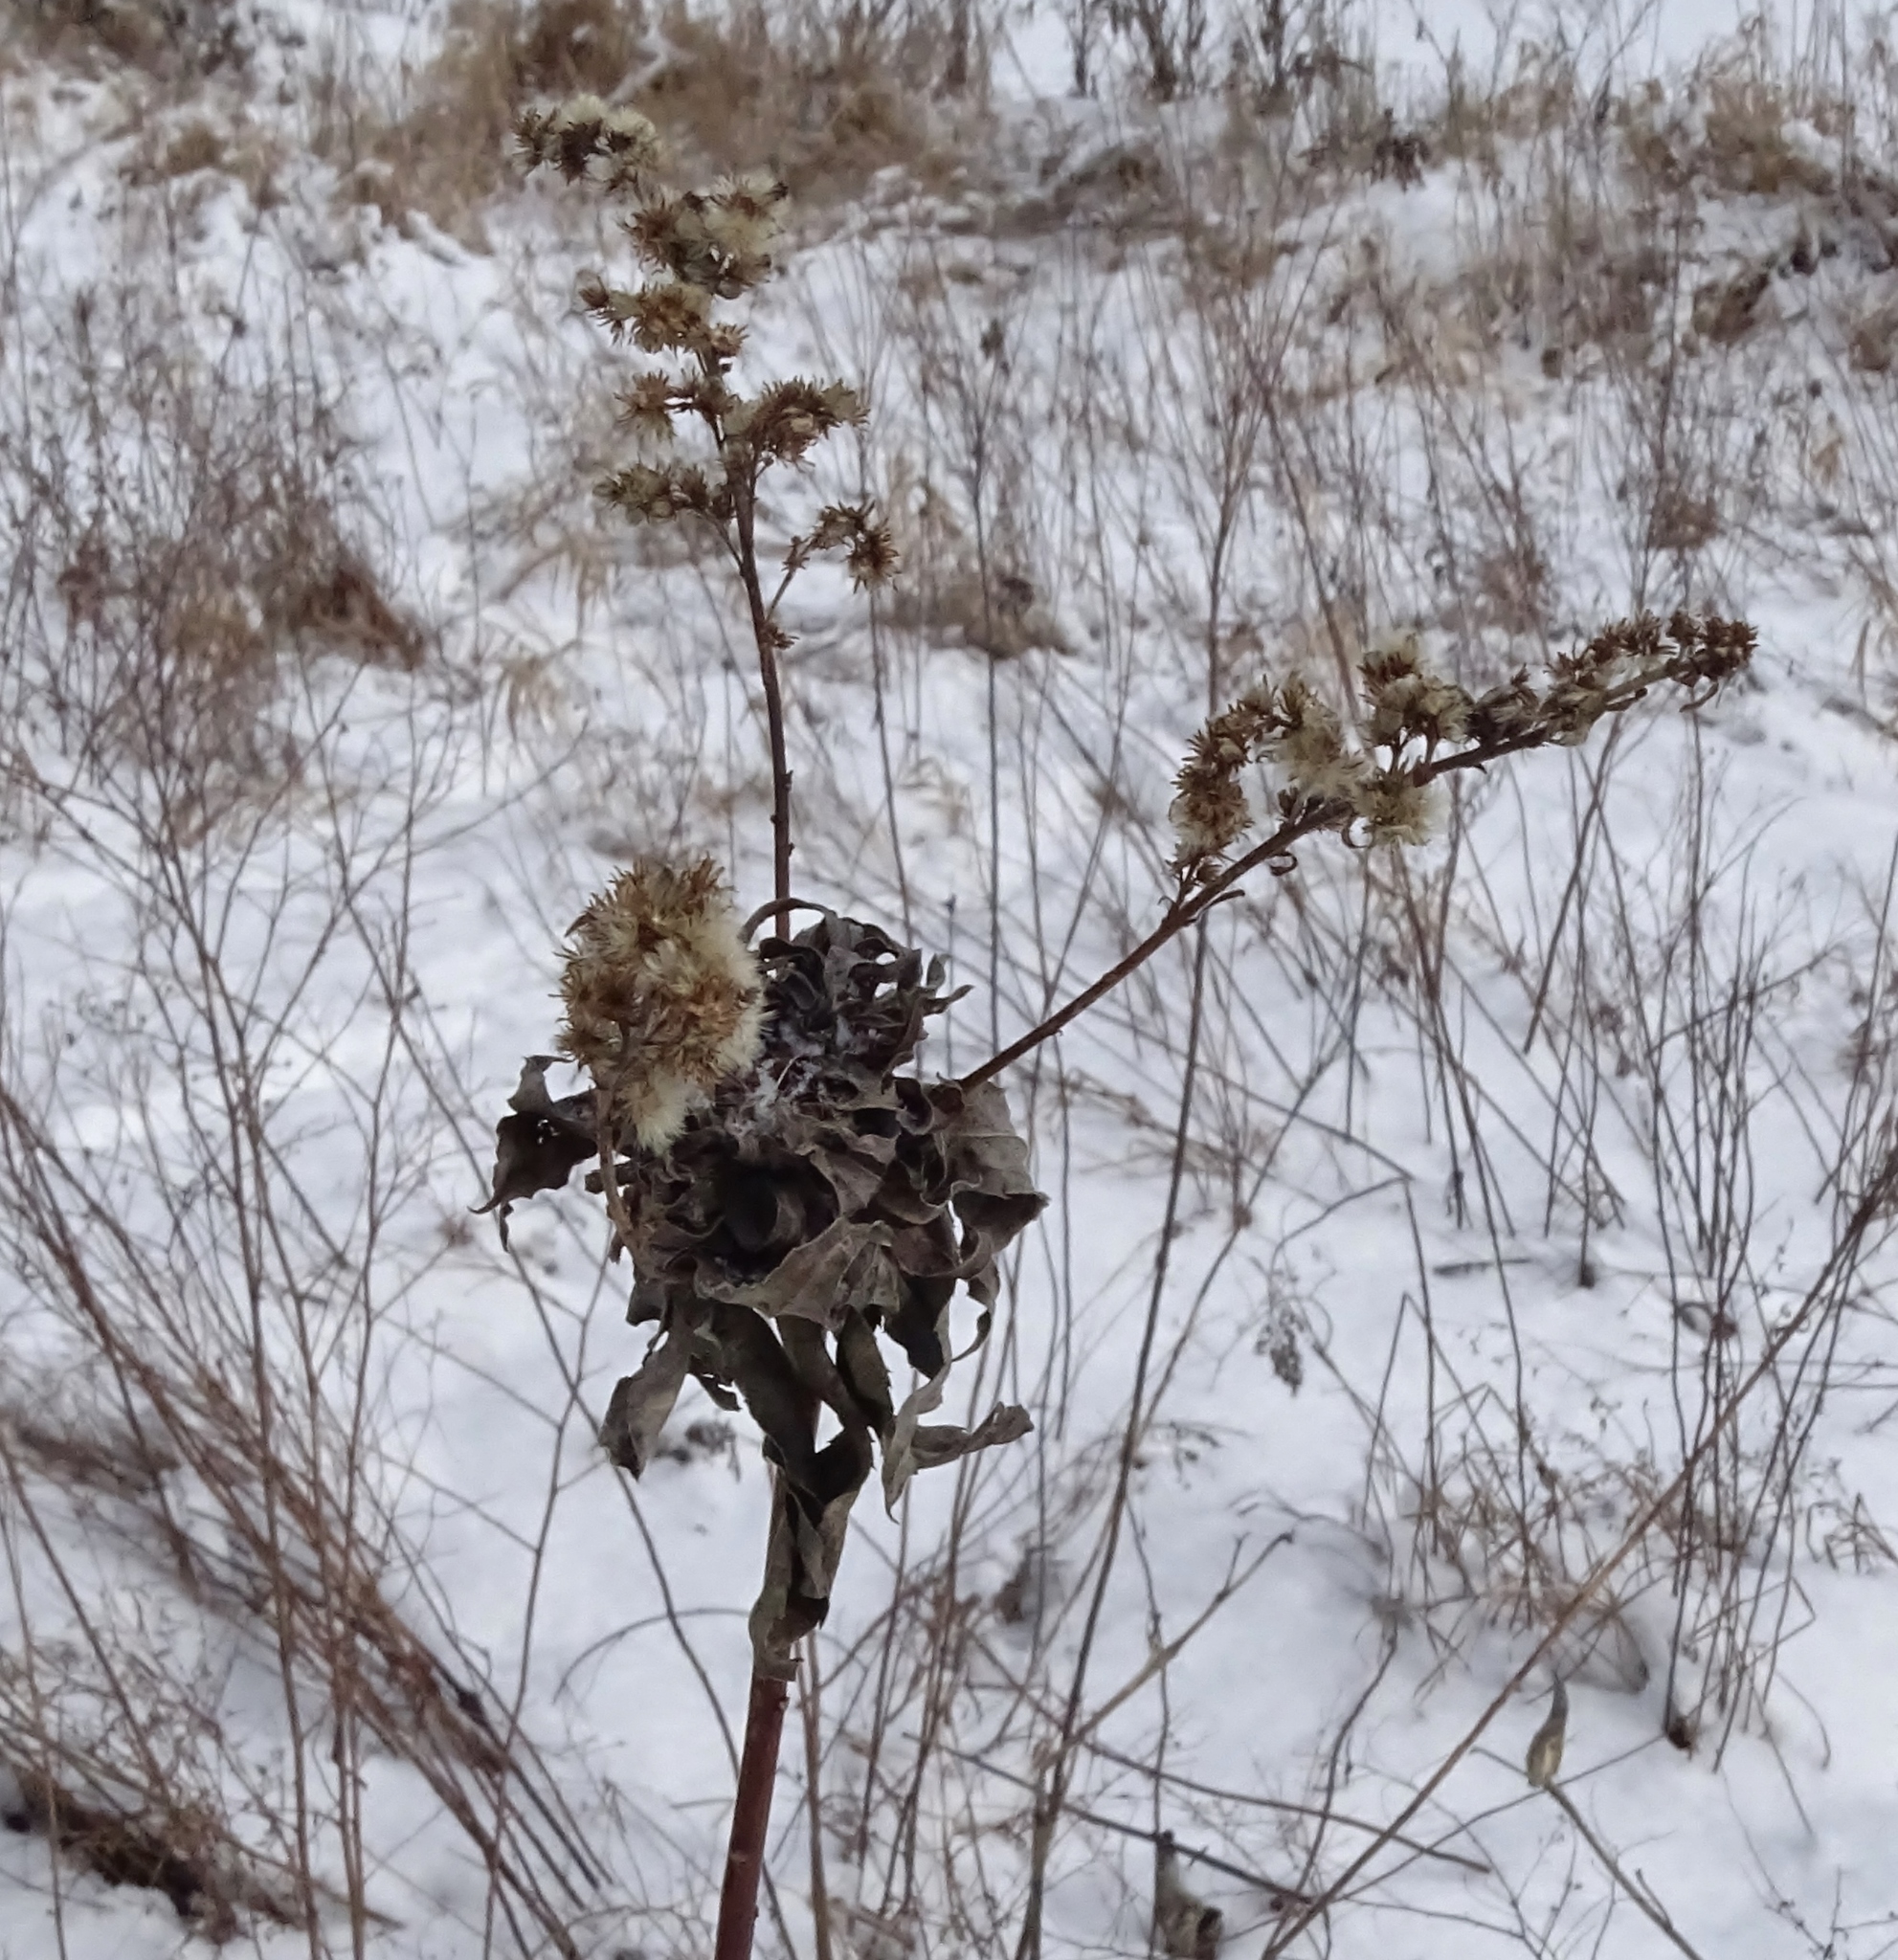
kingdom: Animalia
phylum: Arthropoda
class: Insecta
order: Diptera
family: Cecidomyiidae
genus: Rhopalomyia
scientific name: Rhopalomyia solidaginis
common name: Goldenrod bunch gall midge
